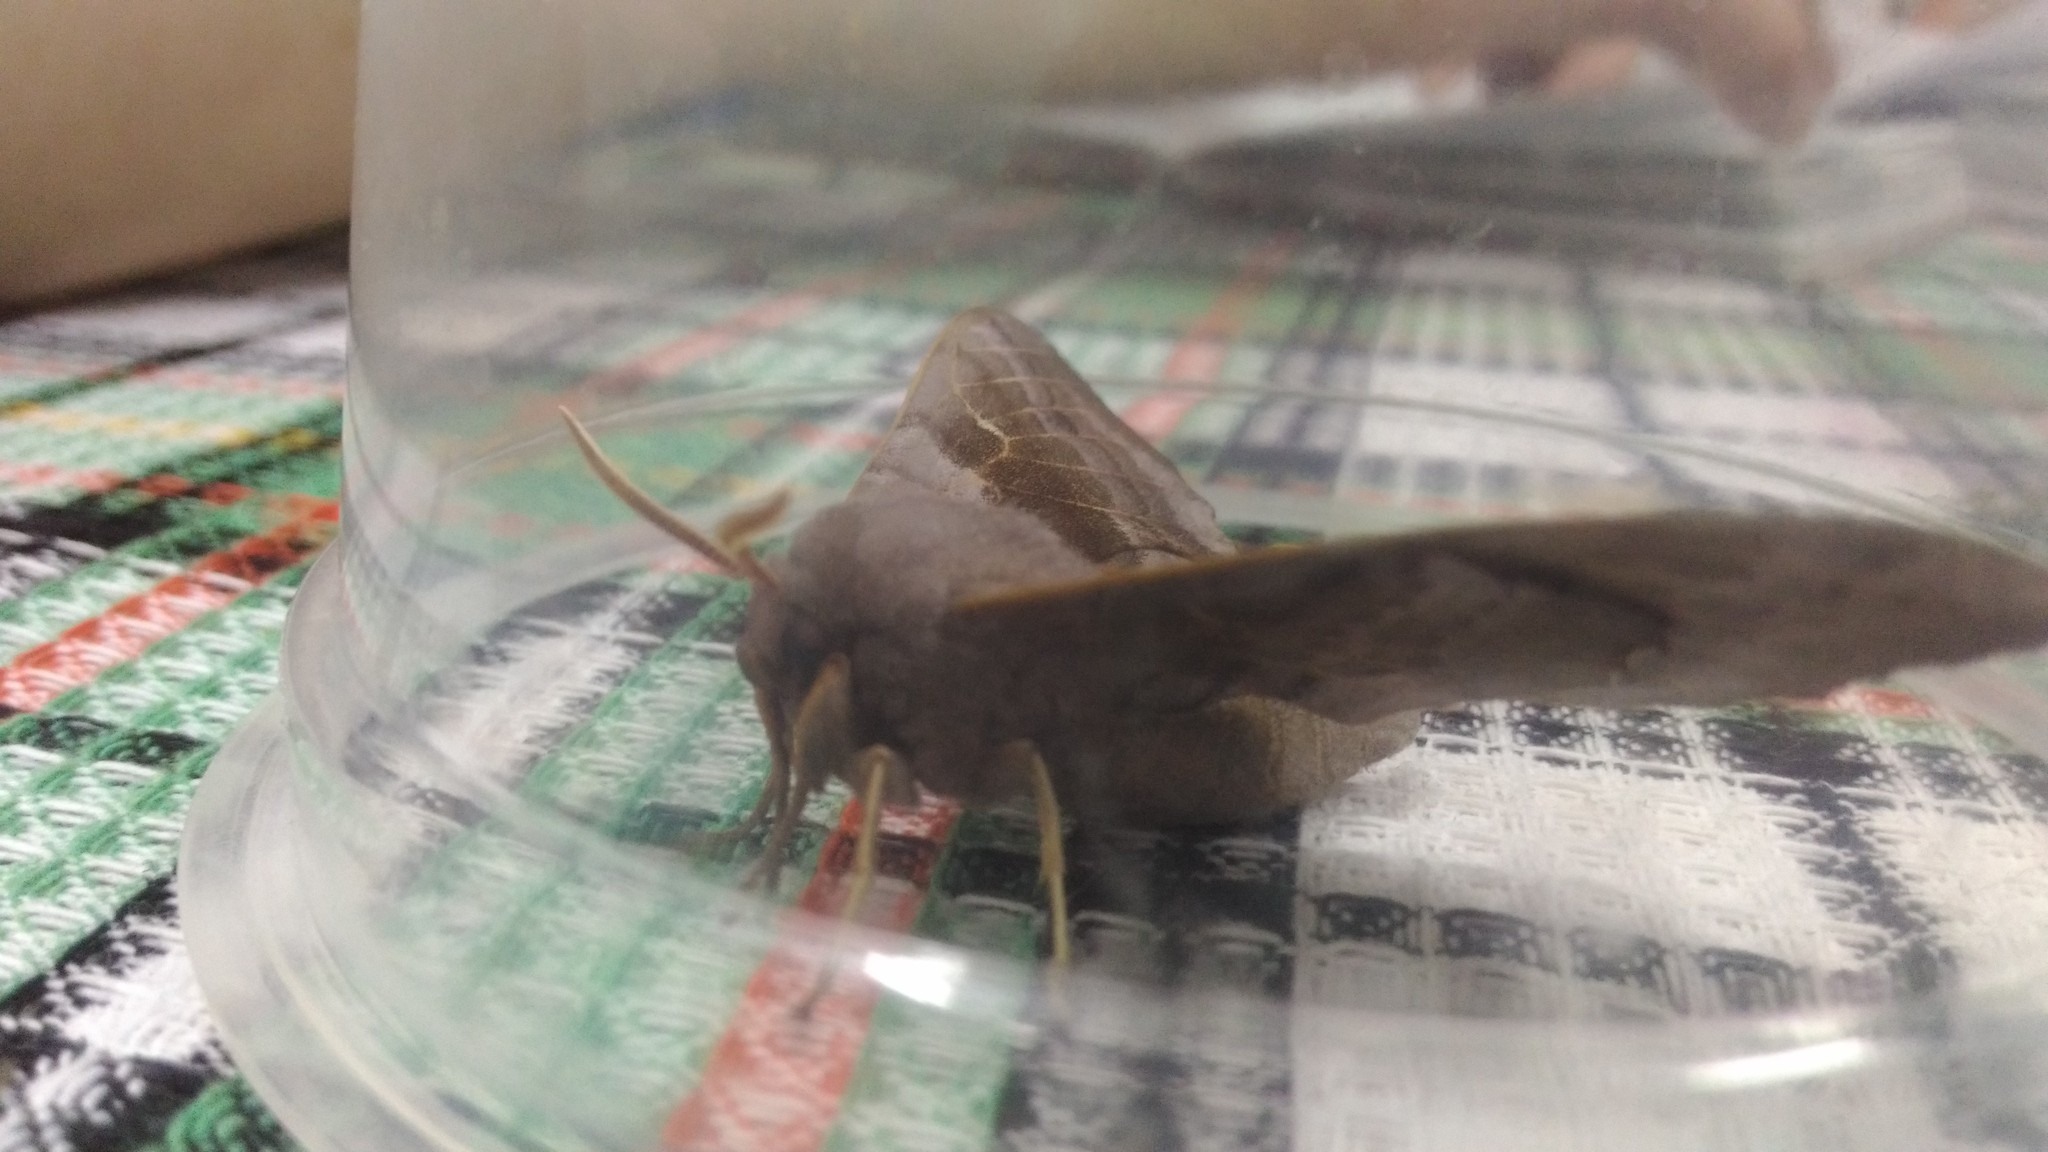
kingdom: Animalia
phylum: Arthropoda
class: Insecta
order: Lepidoptera
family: Sphingidae
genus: Laothoe
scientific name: Laothoe populi
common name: Poplar hawk-moth
